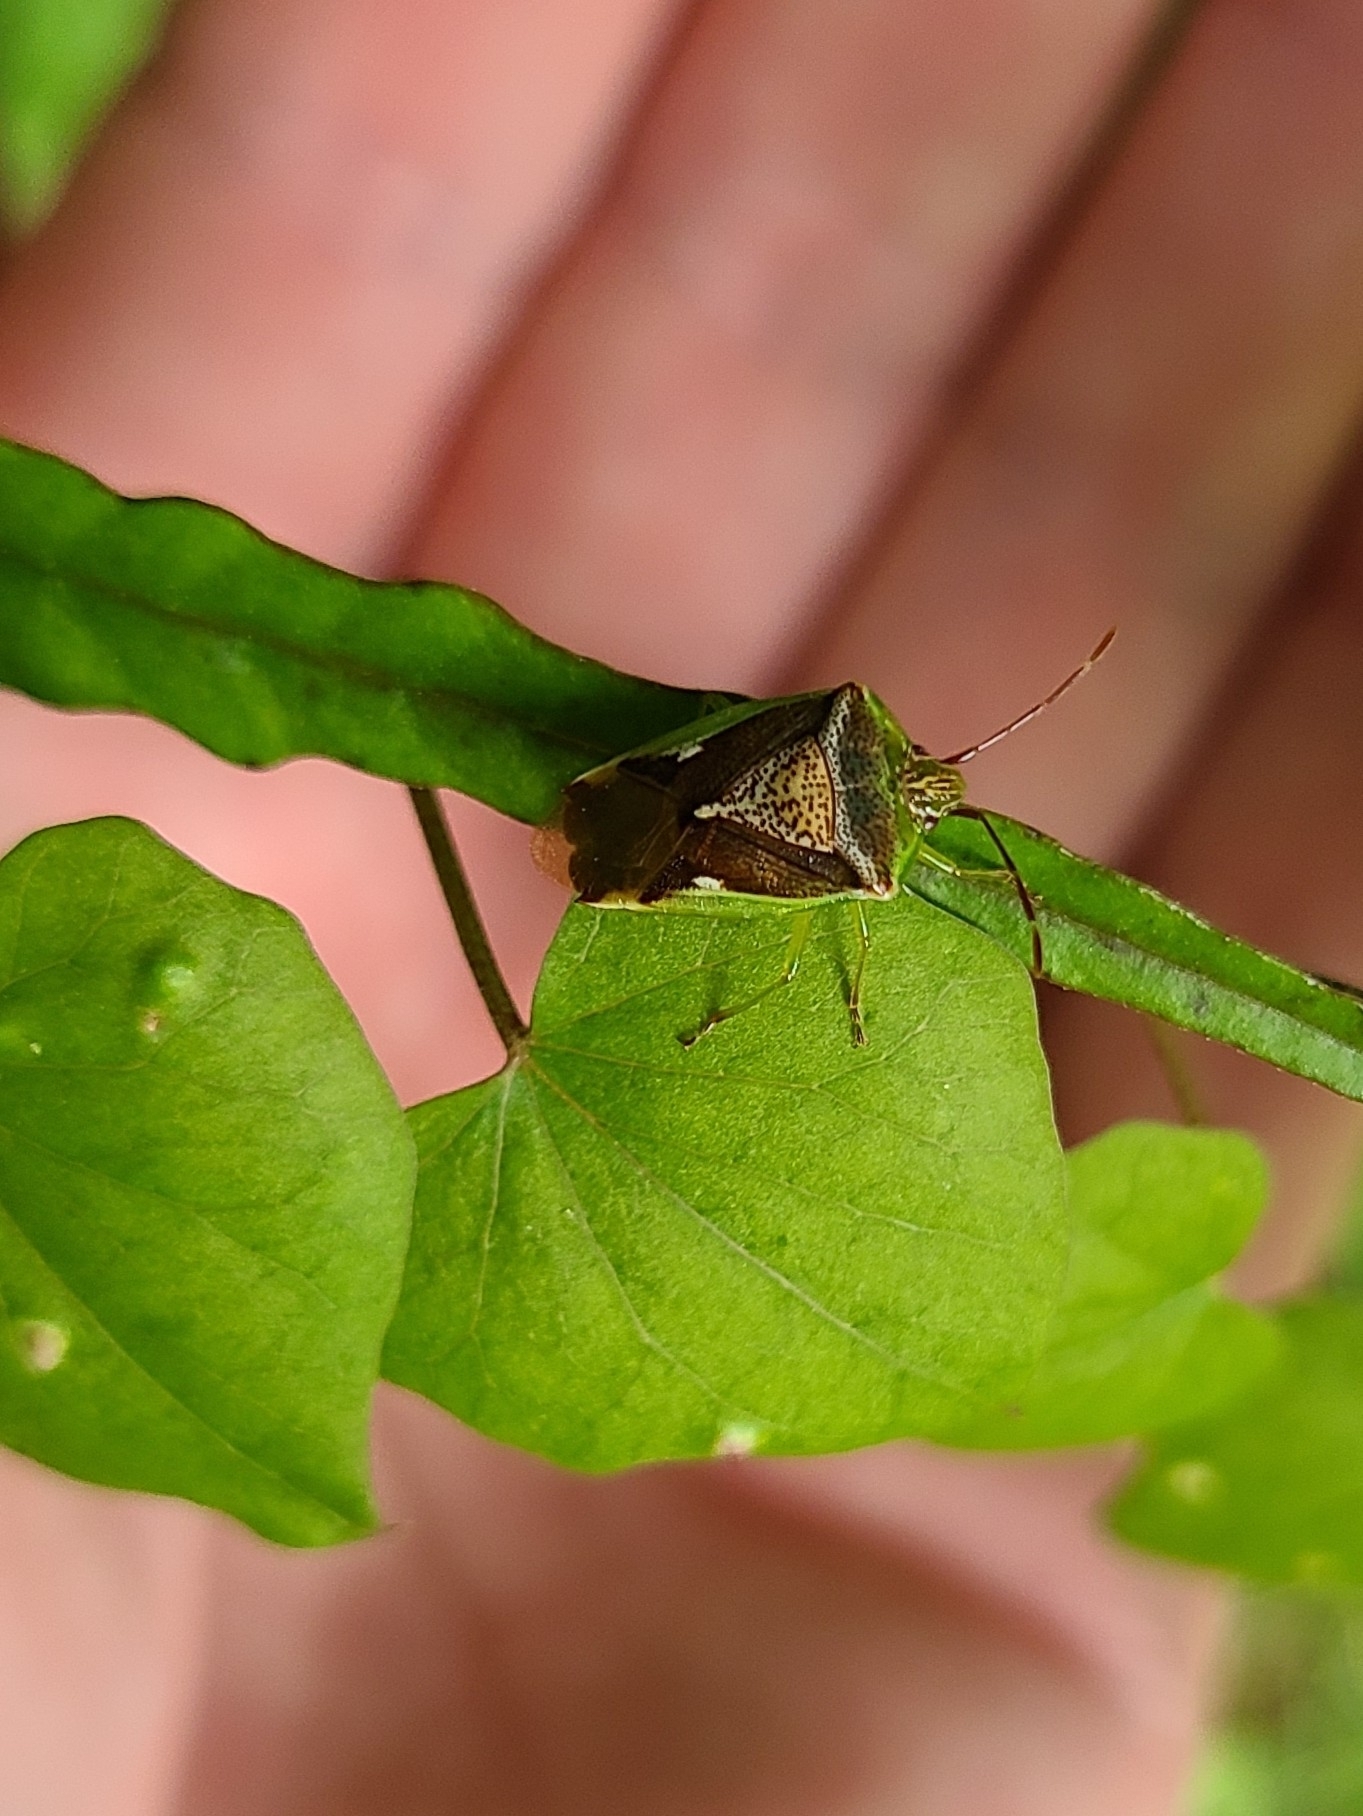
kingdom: Animalia
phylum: Arthropoda
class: Insecta
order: Hemiptera
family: Acanthosomatidae
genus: Oncacontias
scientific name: Oncacontias vittatus
